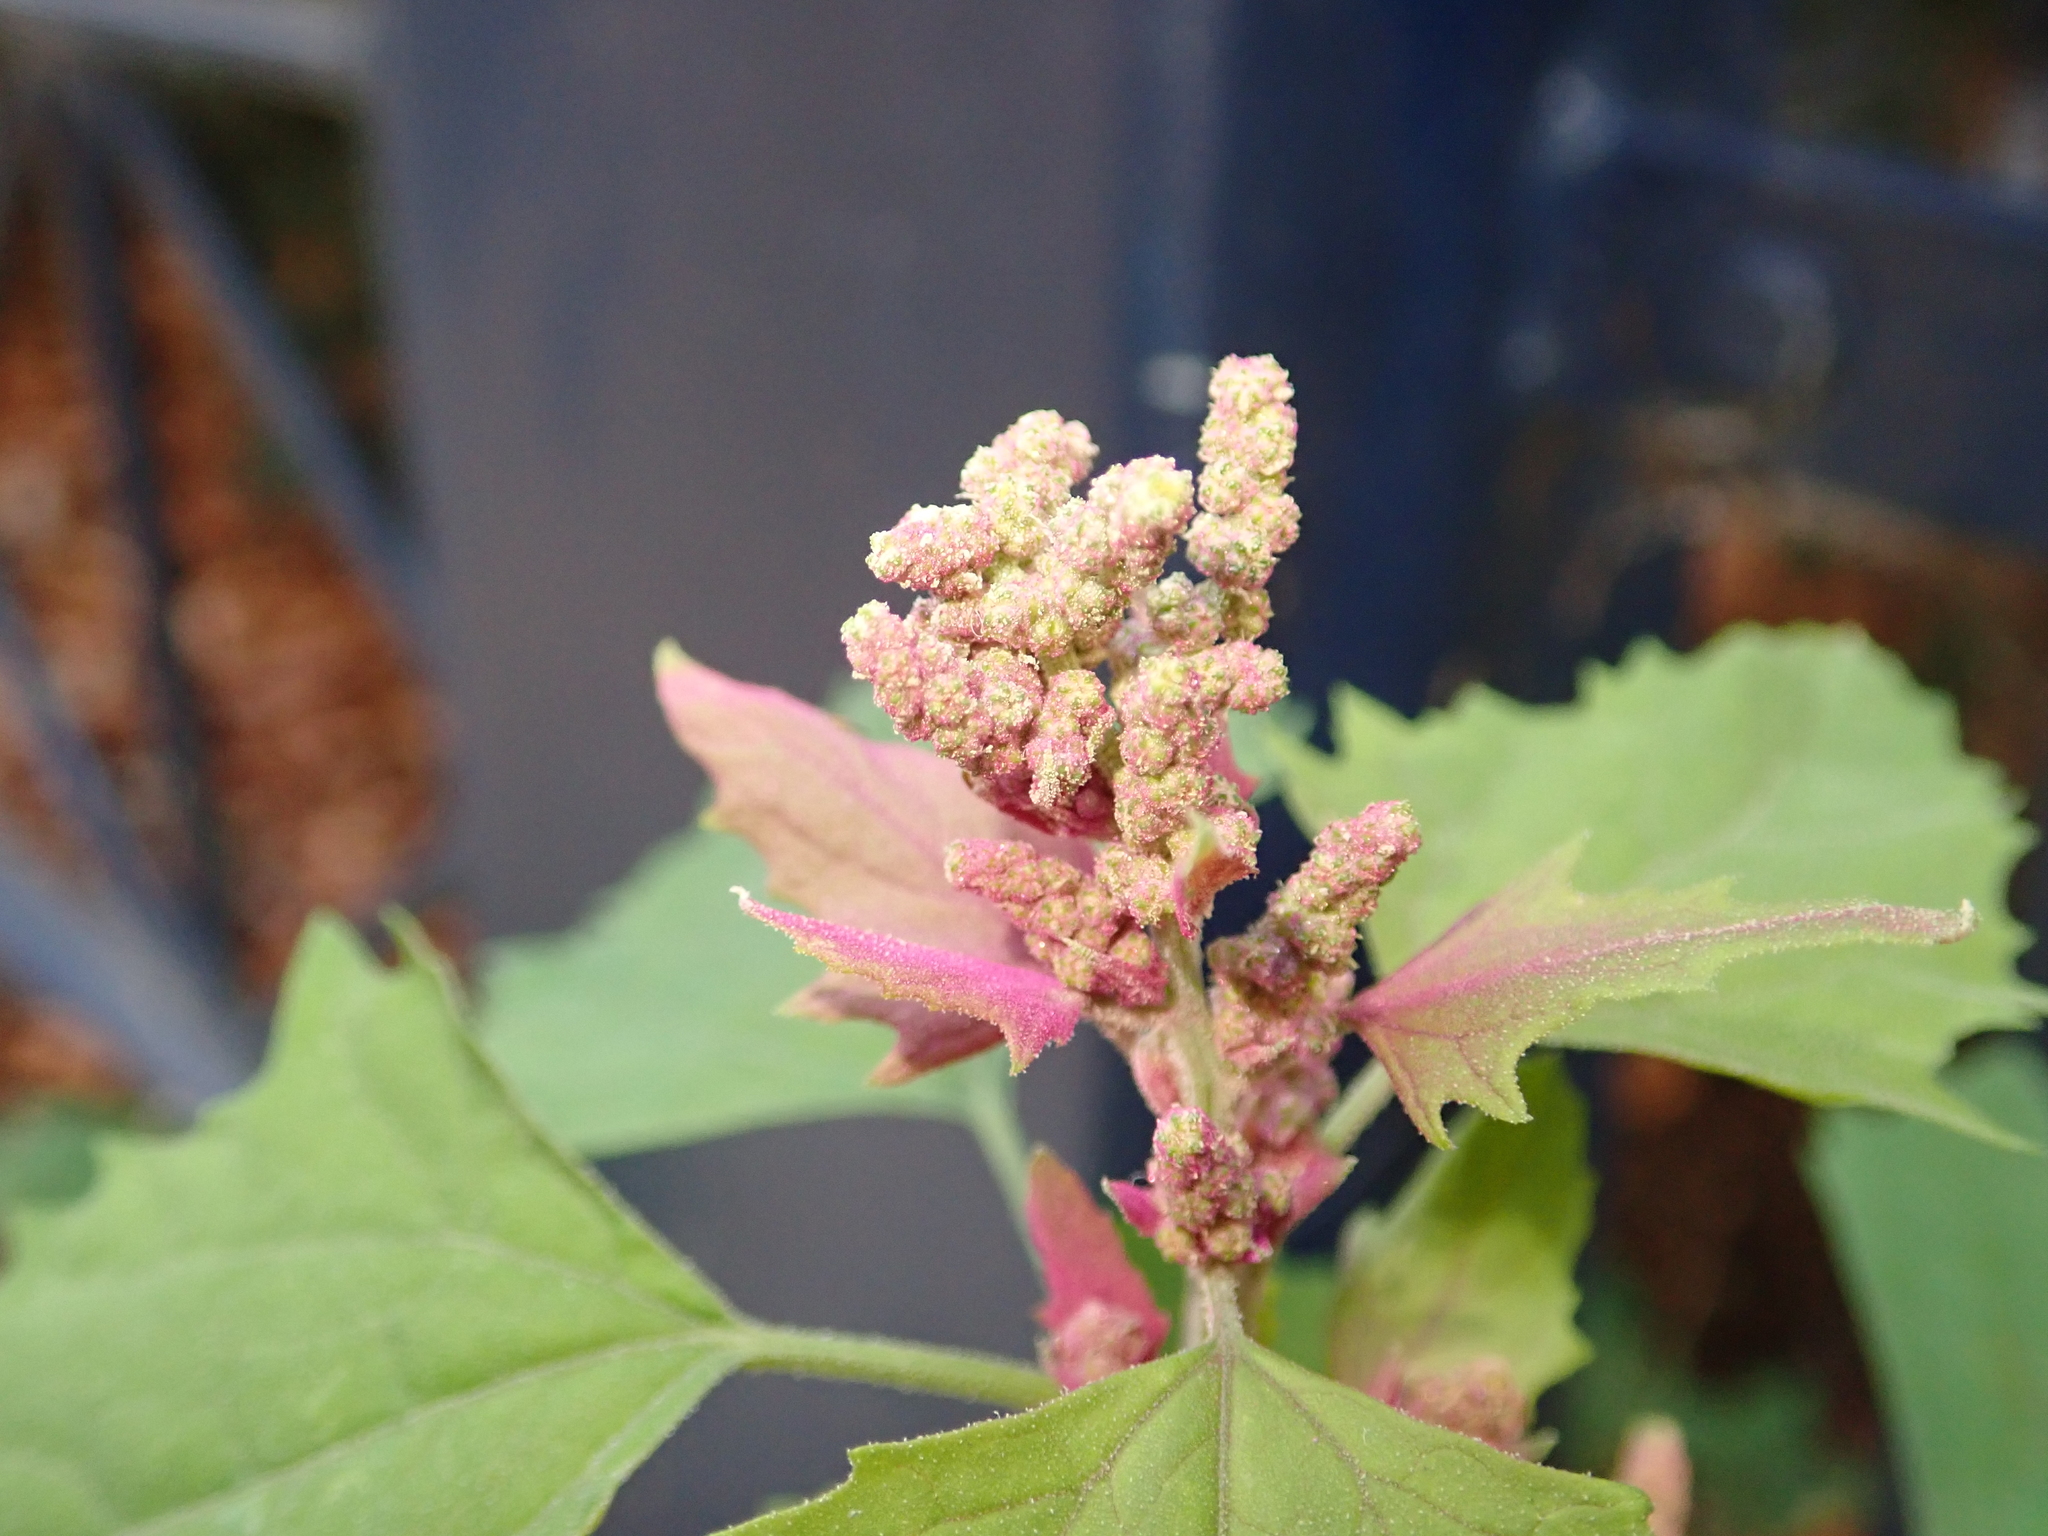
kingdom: Plantae
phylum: Tracheophyta
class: Magnoliopsida
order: Caryophyllales
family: Amaranthaceae
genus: Chenopodium
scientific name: Chenopodium giganteum
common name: Magentaspreen
